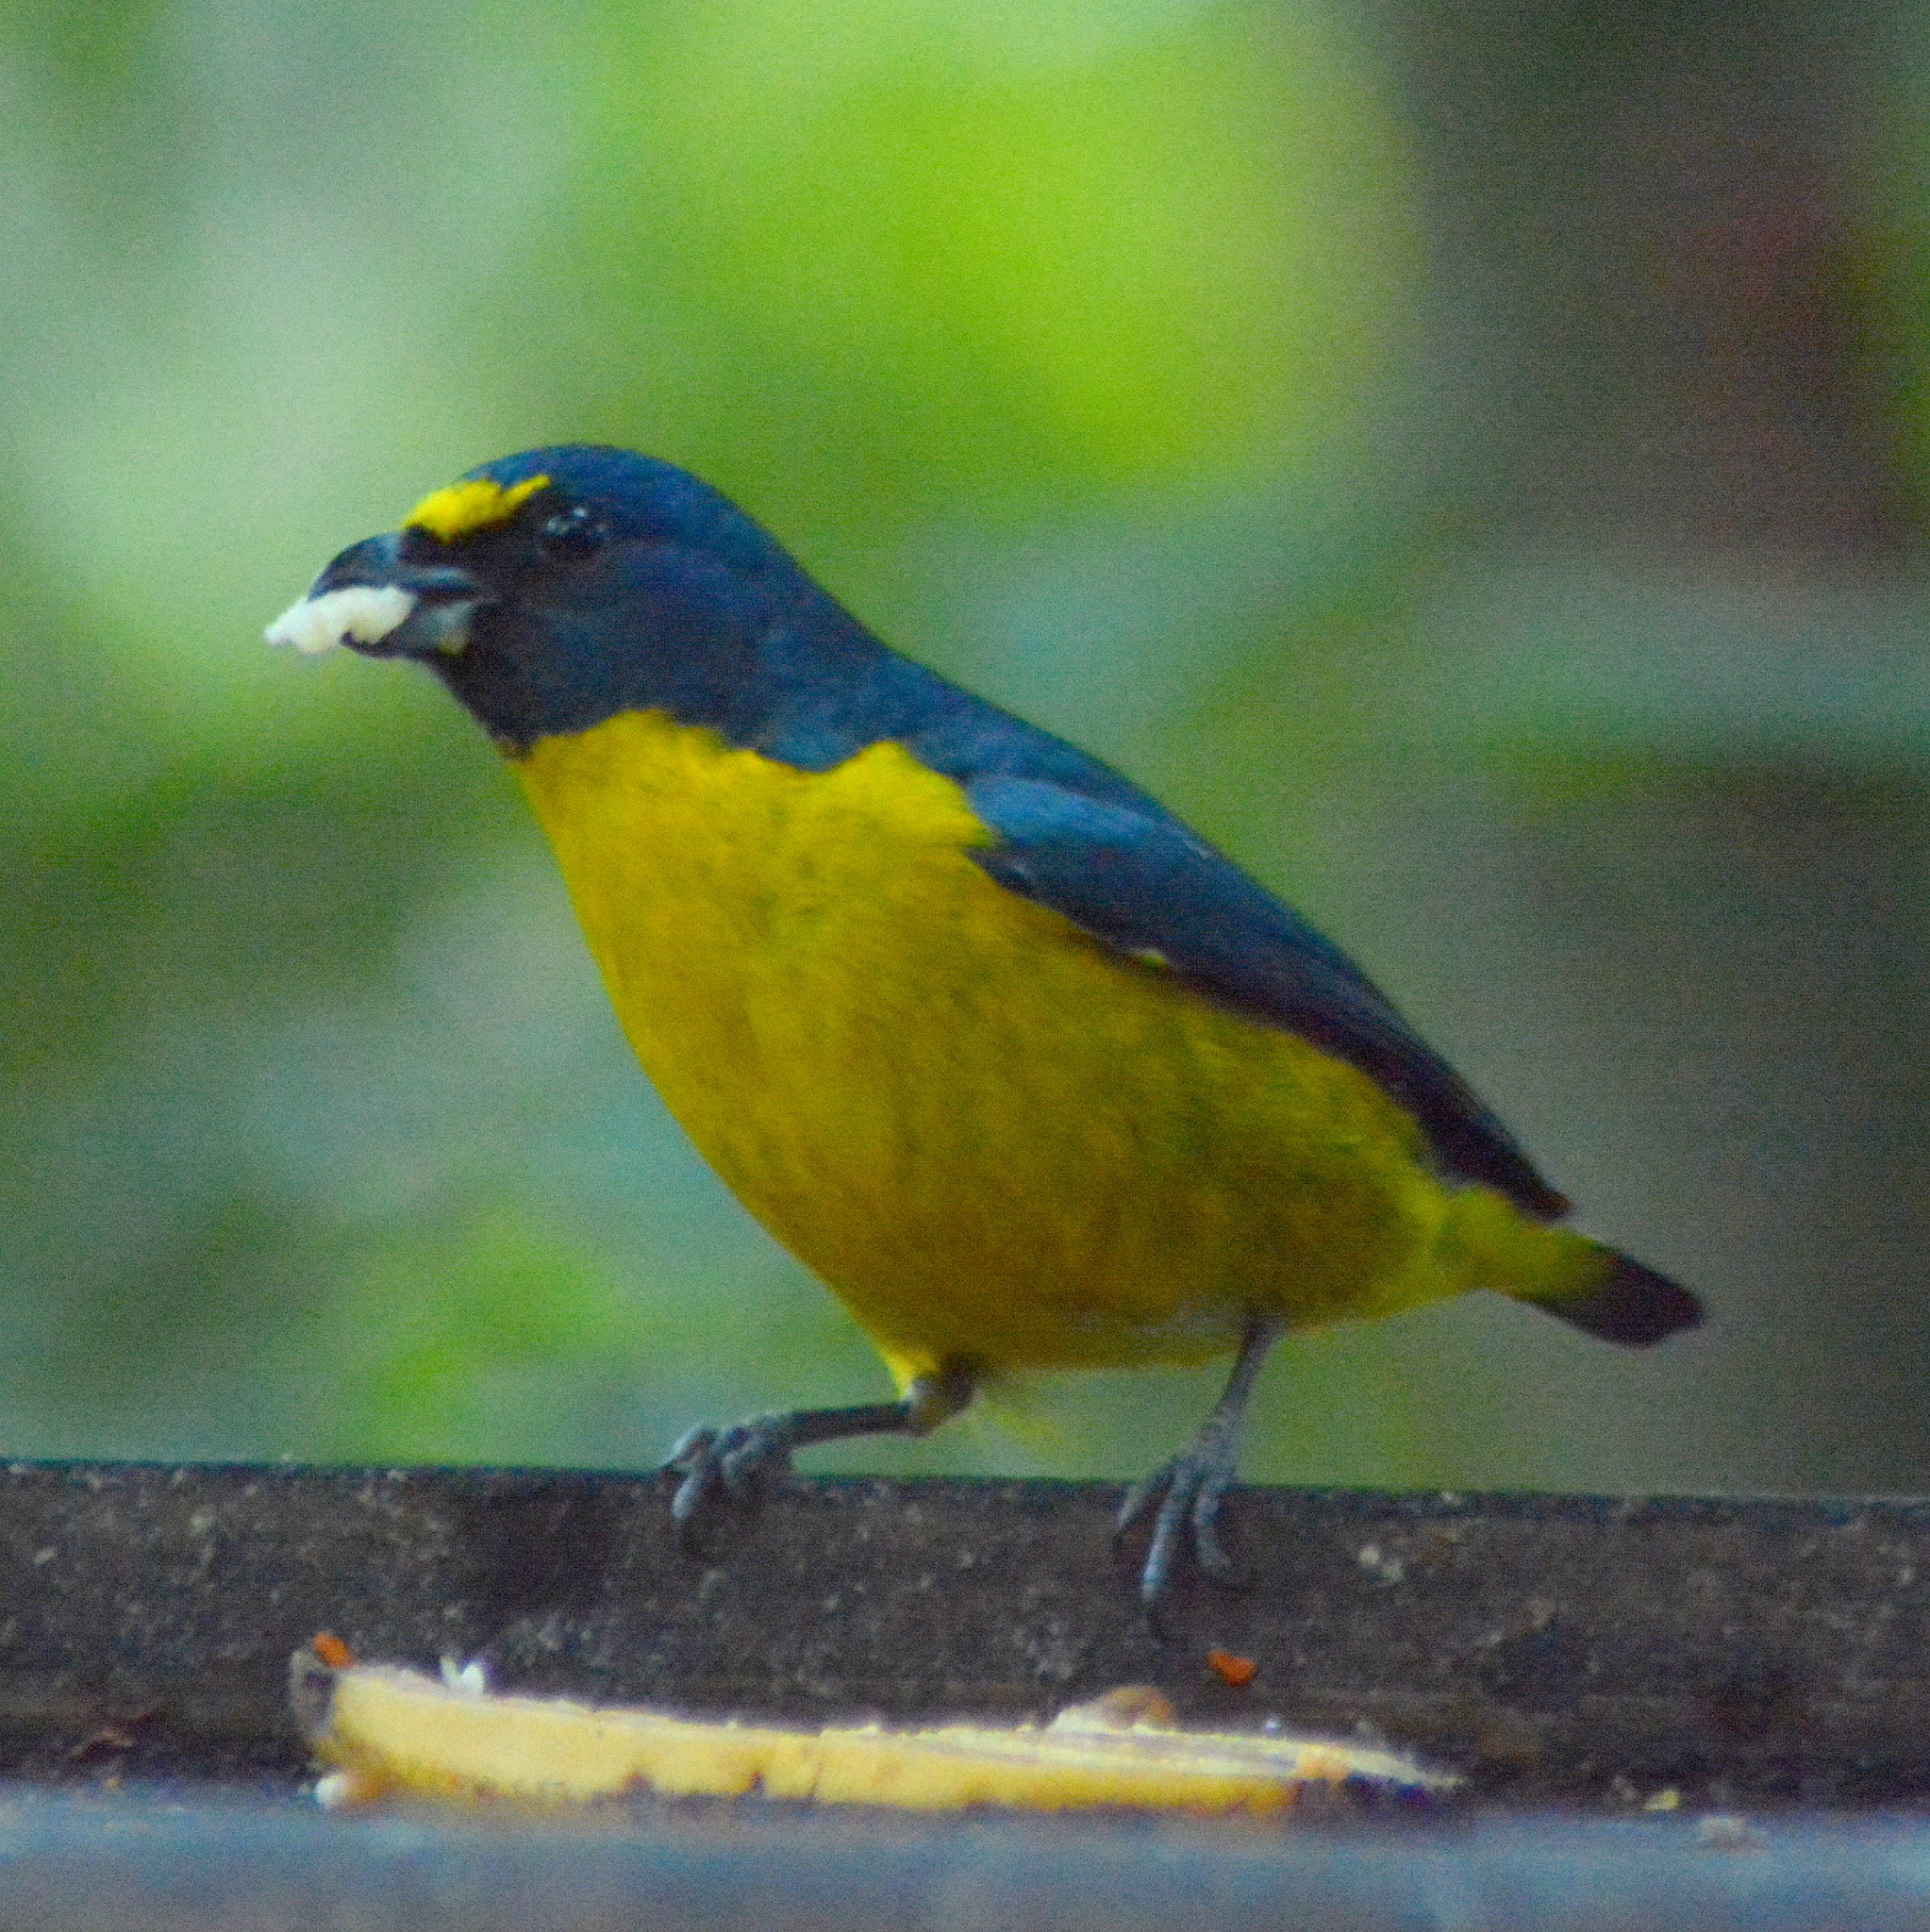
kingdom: Animalia
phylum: Chordata
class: Aves
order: Passeriformes
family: Fringillidae
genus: Euphonia
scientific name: Euphonia chalybea
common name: Green-chinned euphonia
